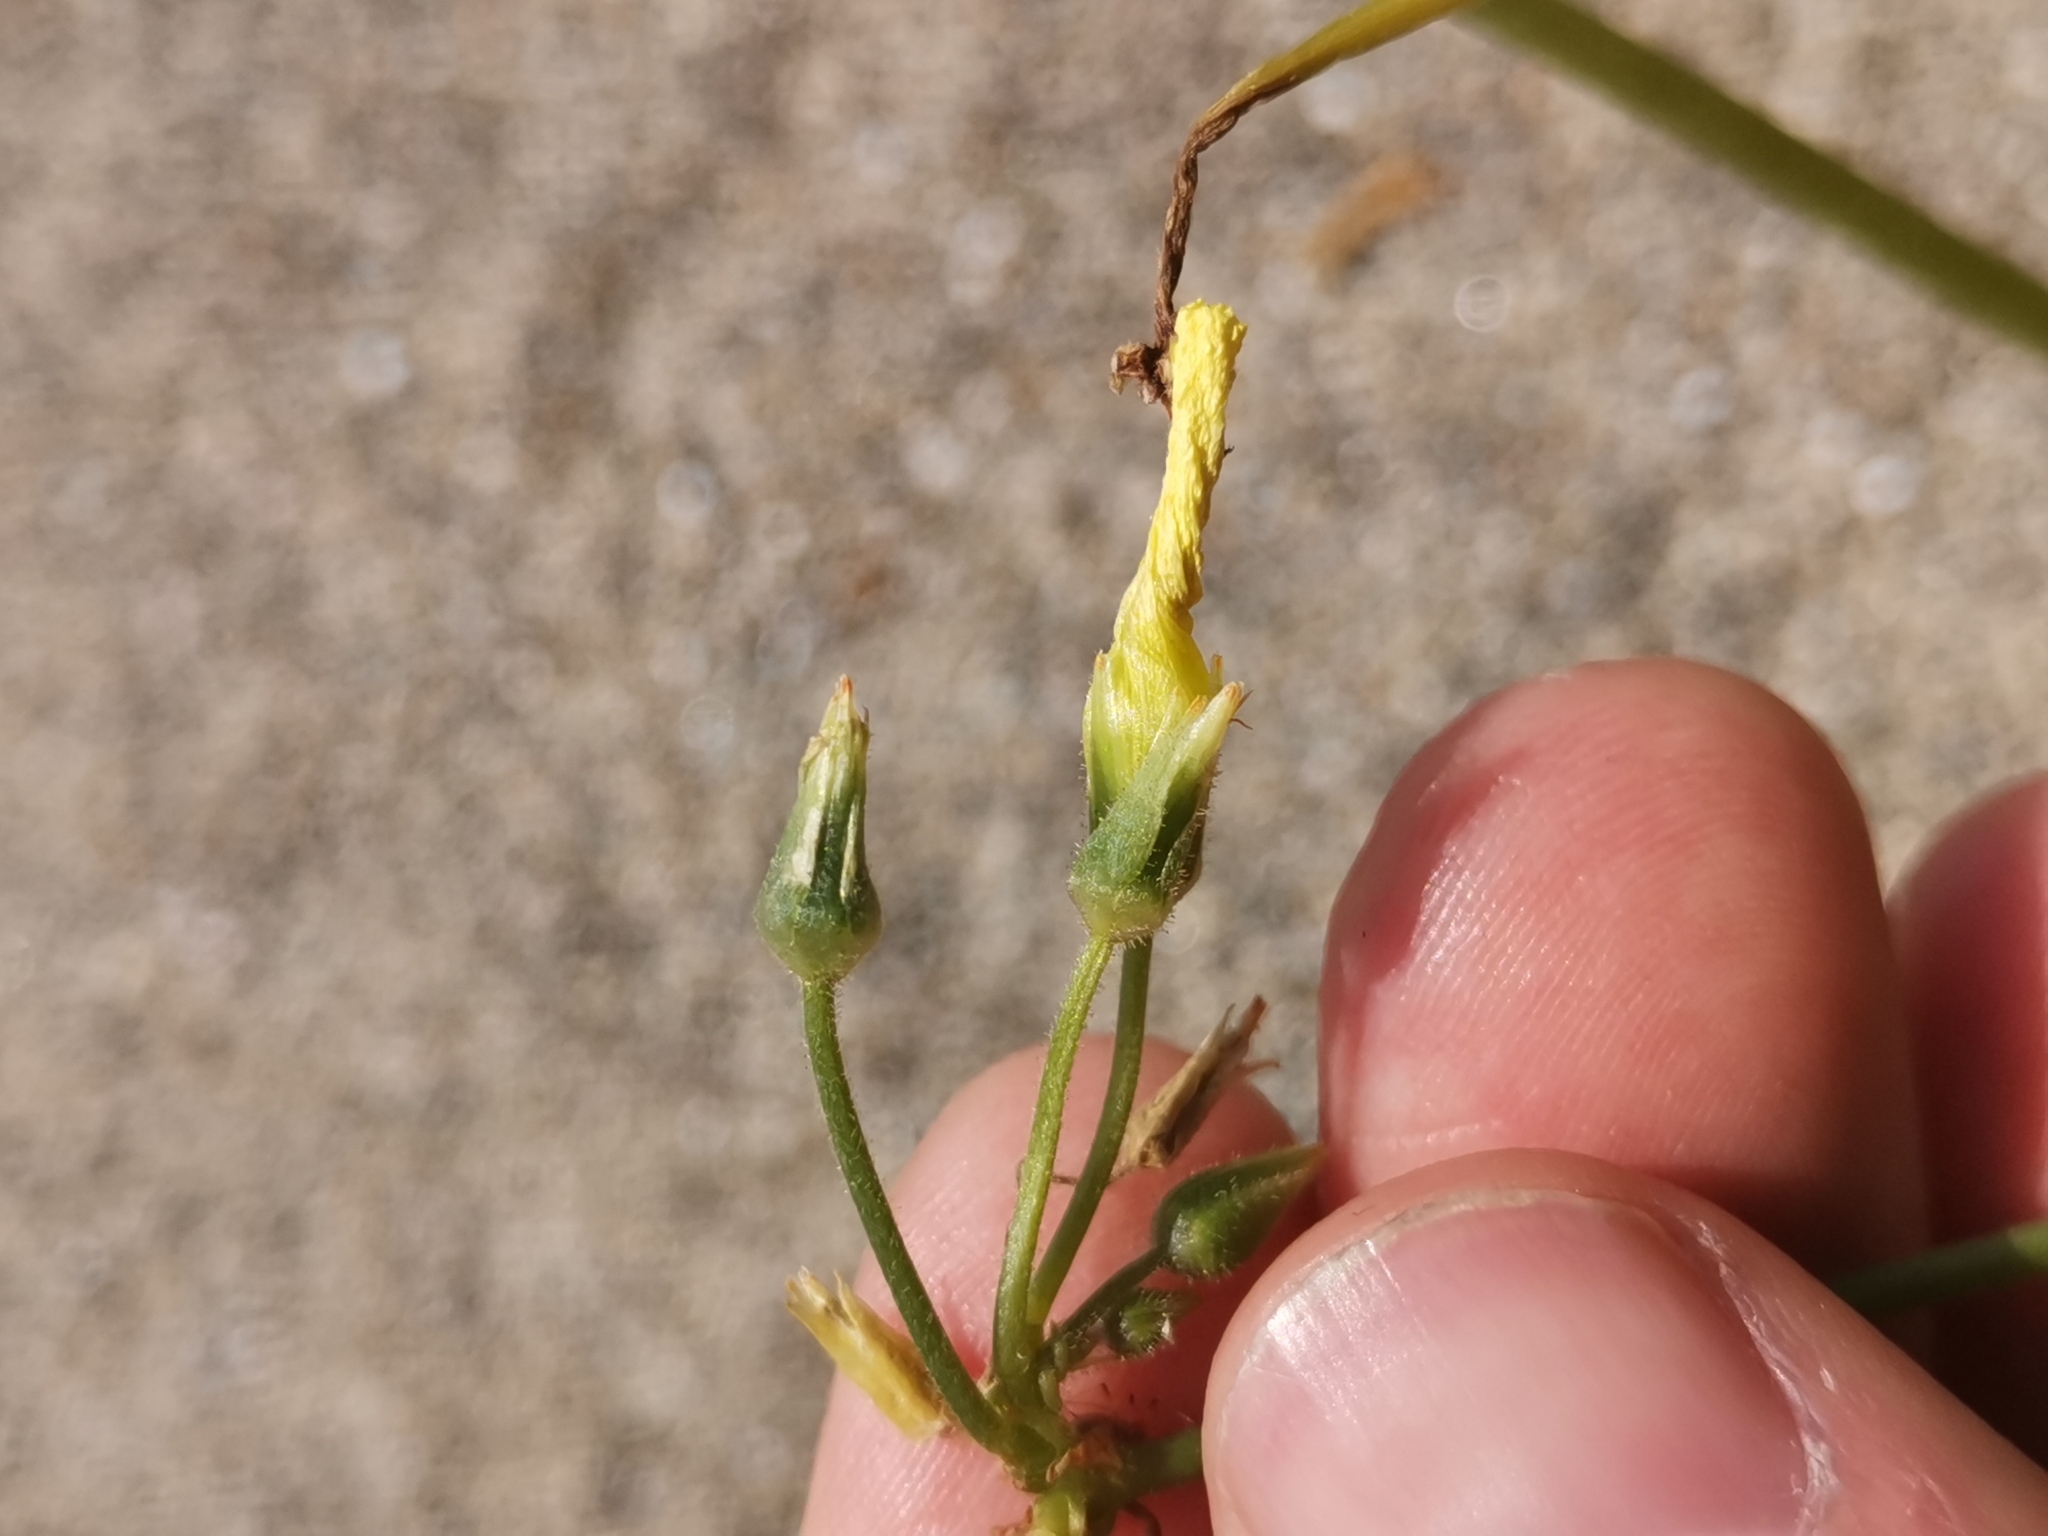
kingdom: Plantae
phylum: Tracheophyta
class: Magnoliopsida
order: Oxalidales
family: Oxalidaceae
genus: Oxalis
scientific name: Oxalis pes-caprae
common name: Bermuda-buttercup
